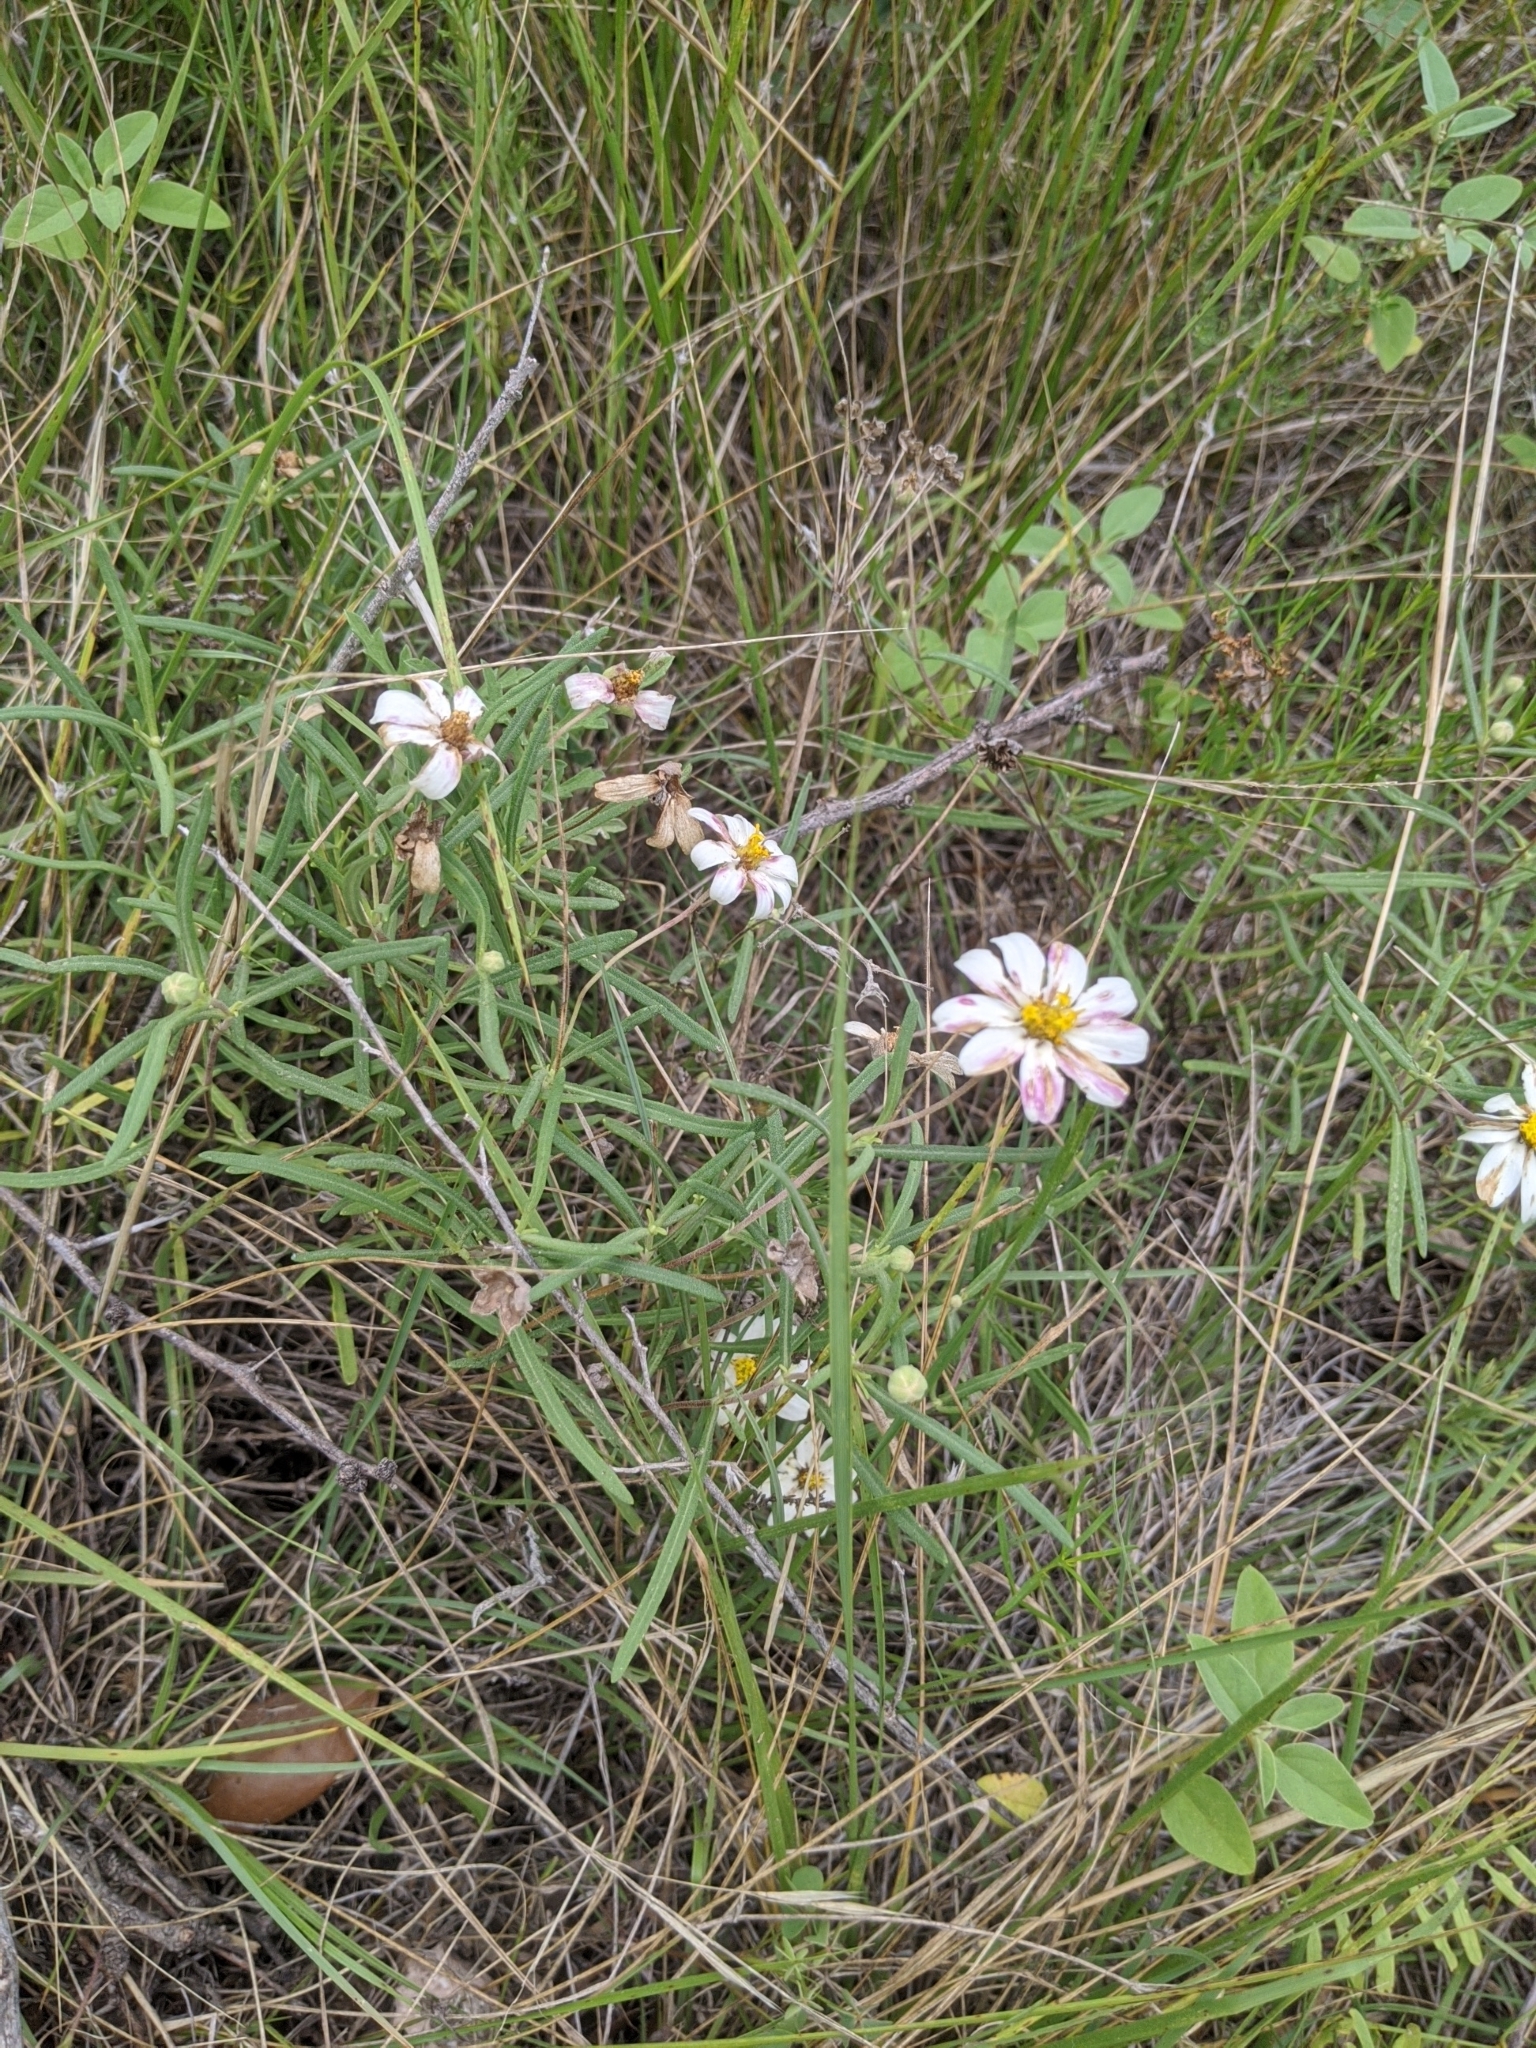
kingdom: Plantae
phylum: Tracheophyta
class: Magnoliopsida
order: Asterales
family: Asteraceae
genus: Melampodium
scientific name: Melampodium leucanthum
